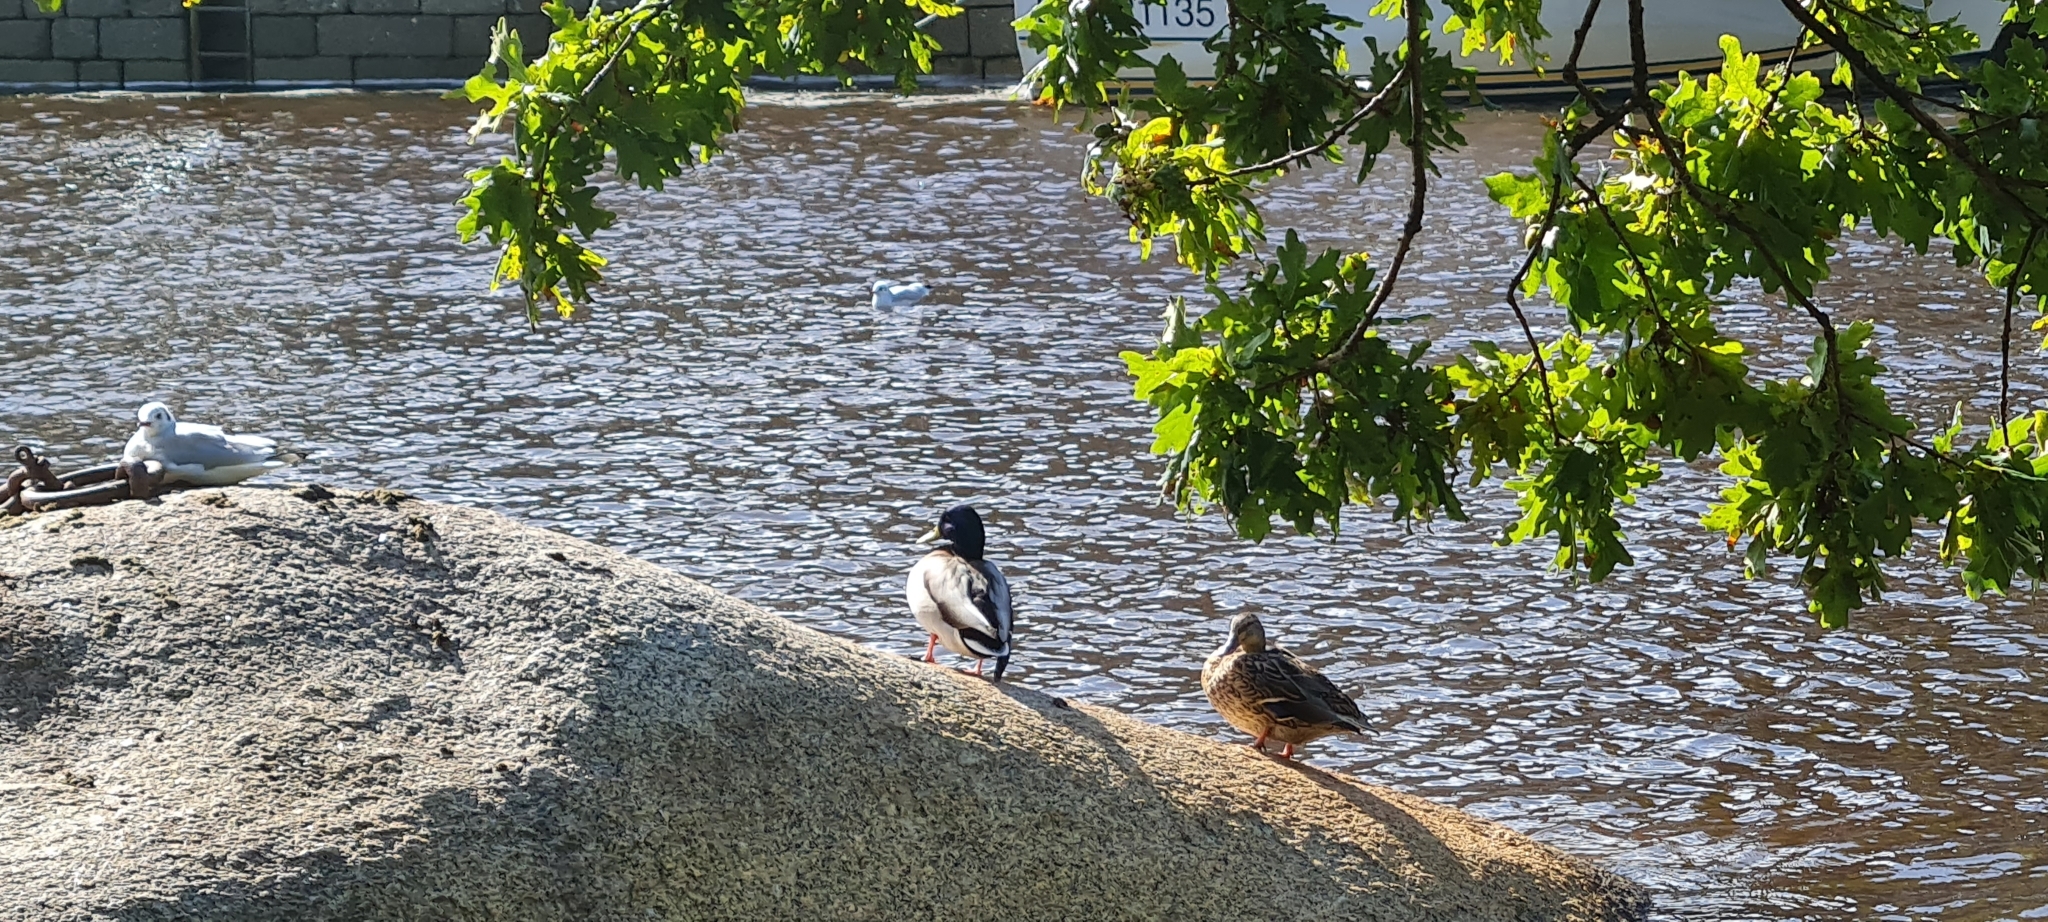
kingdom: Animalia
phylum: Chordata
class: Aves
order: Anseriformes
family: Anatidae
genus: Anas
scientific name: Anas platyrhynchos
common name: Mallard
